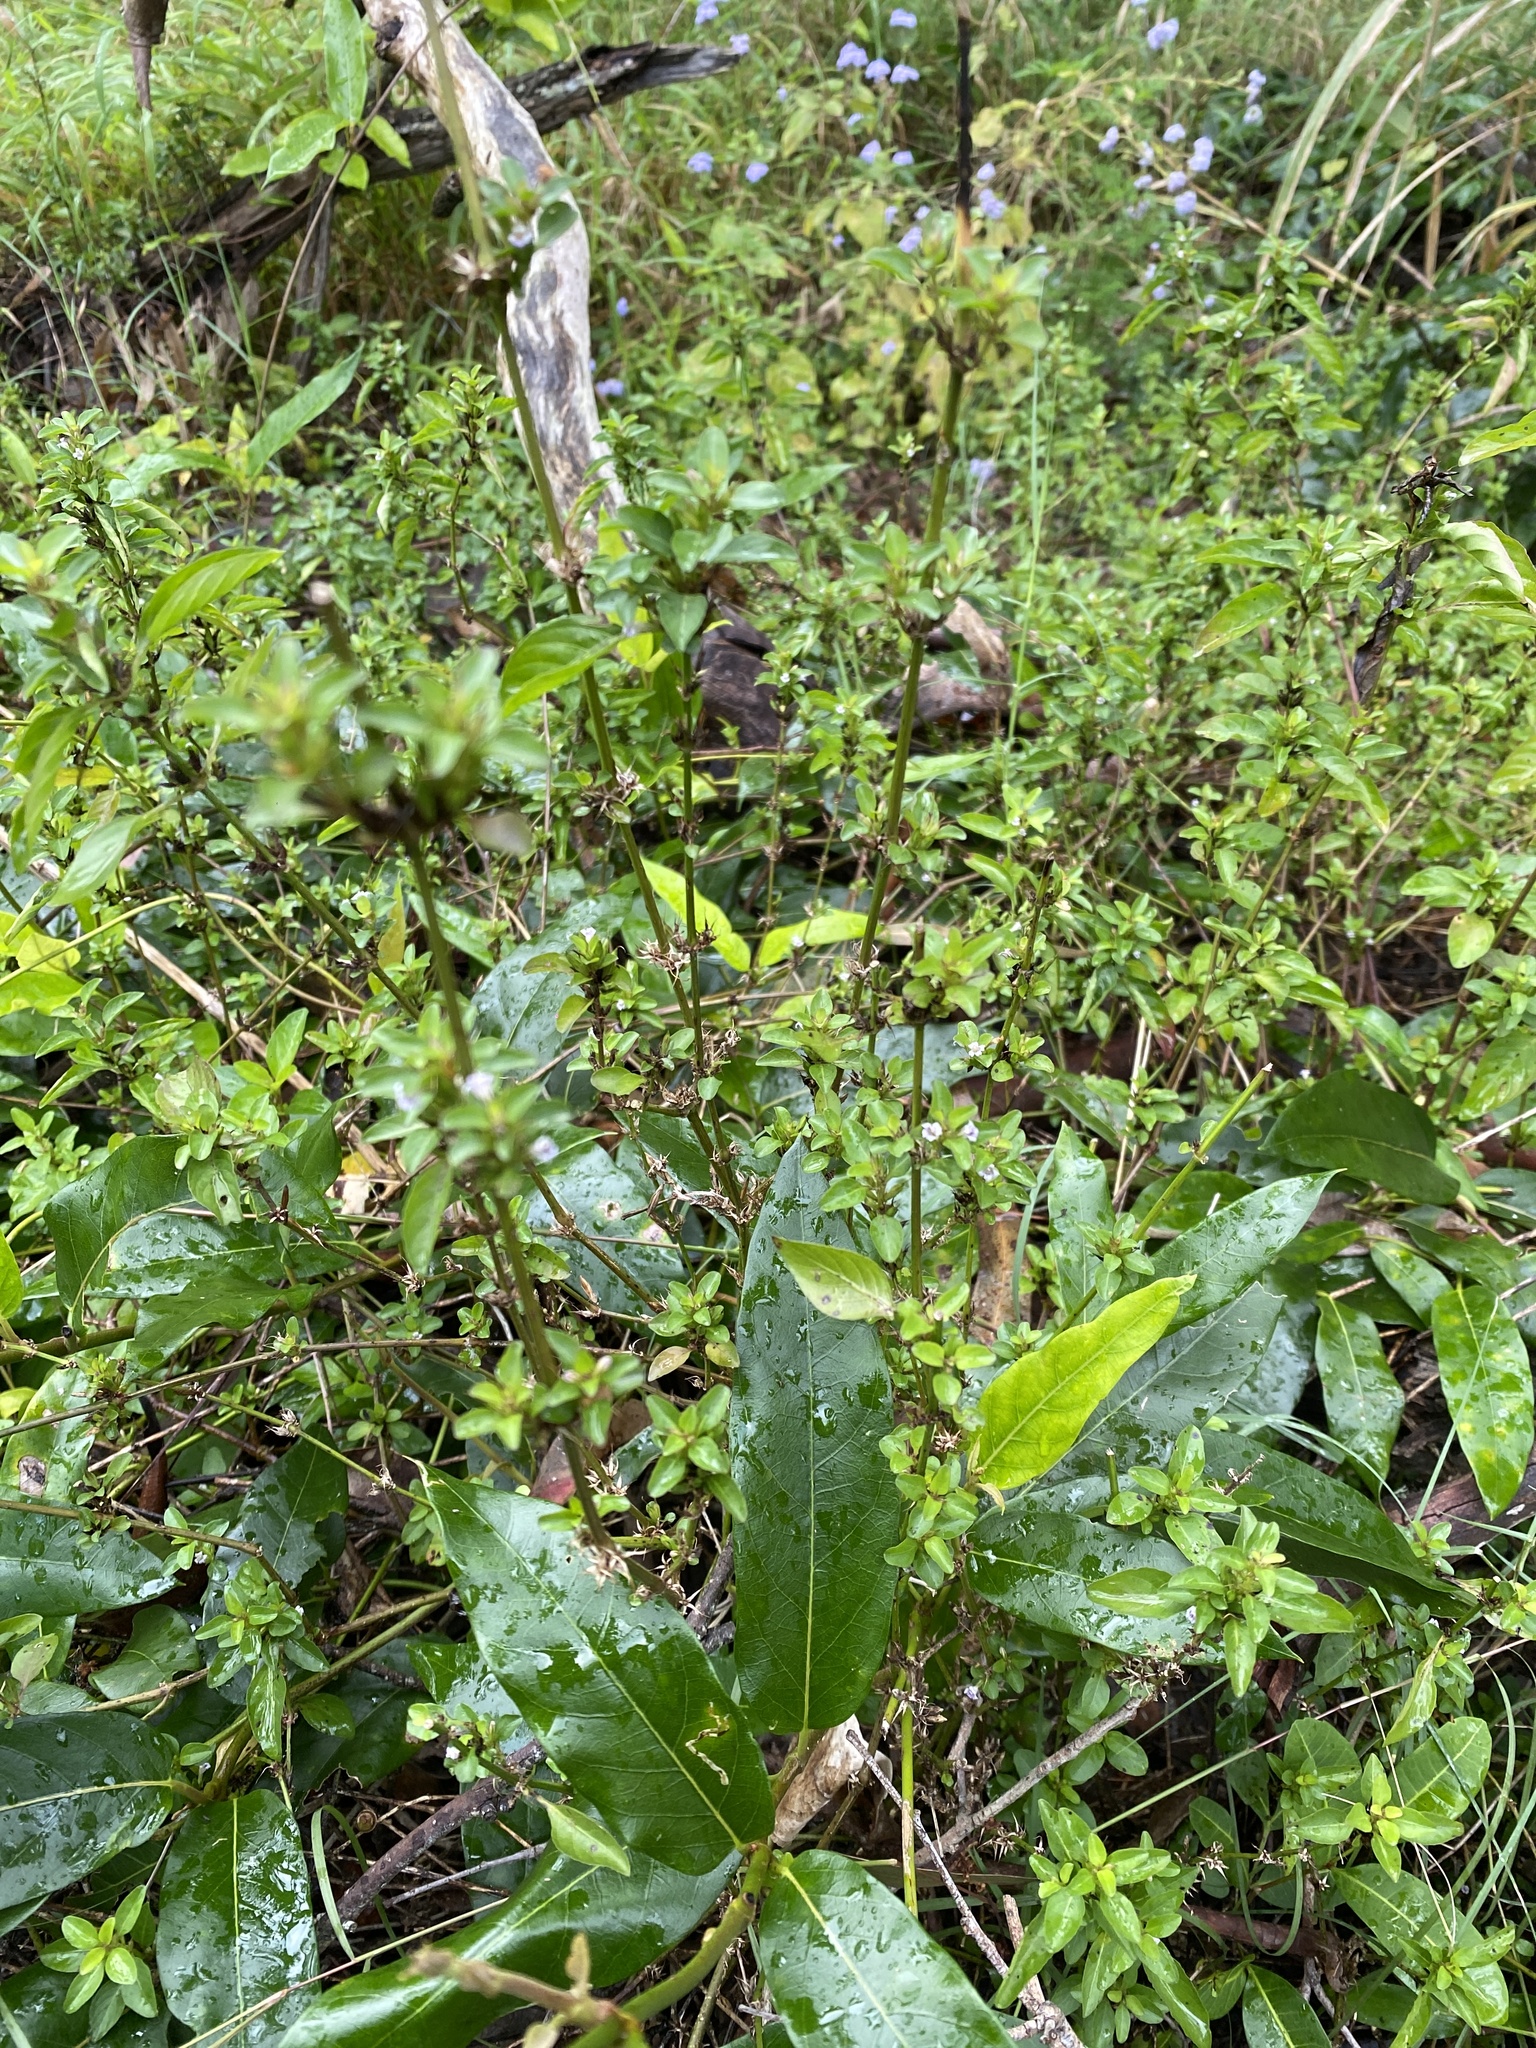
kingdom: Plantae
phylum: Tracheophyta
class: Magnoliopsida
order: Lamiales
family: Acanthaceae
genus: Hygrophila
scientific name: Hygrophila erecta
